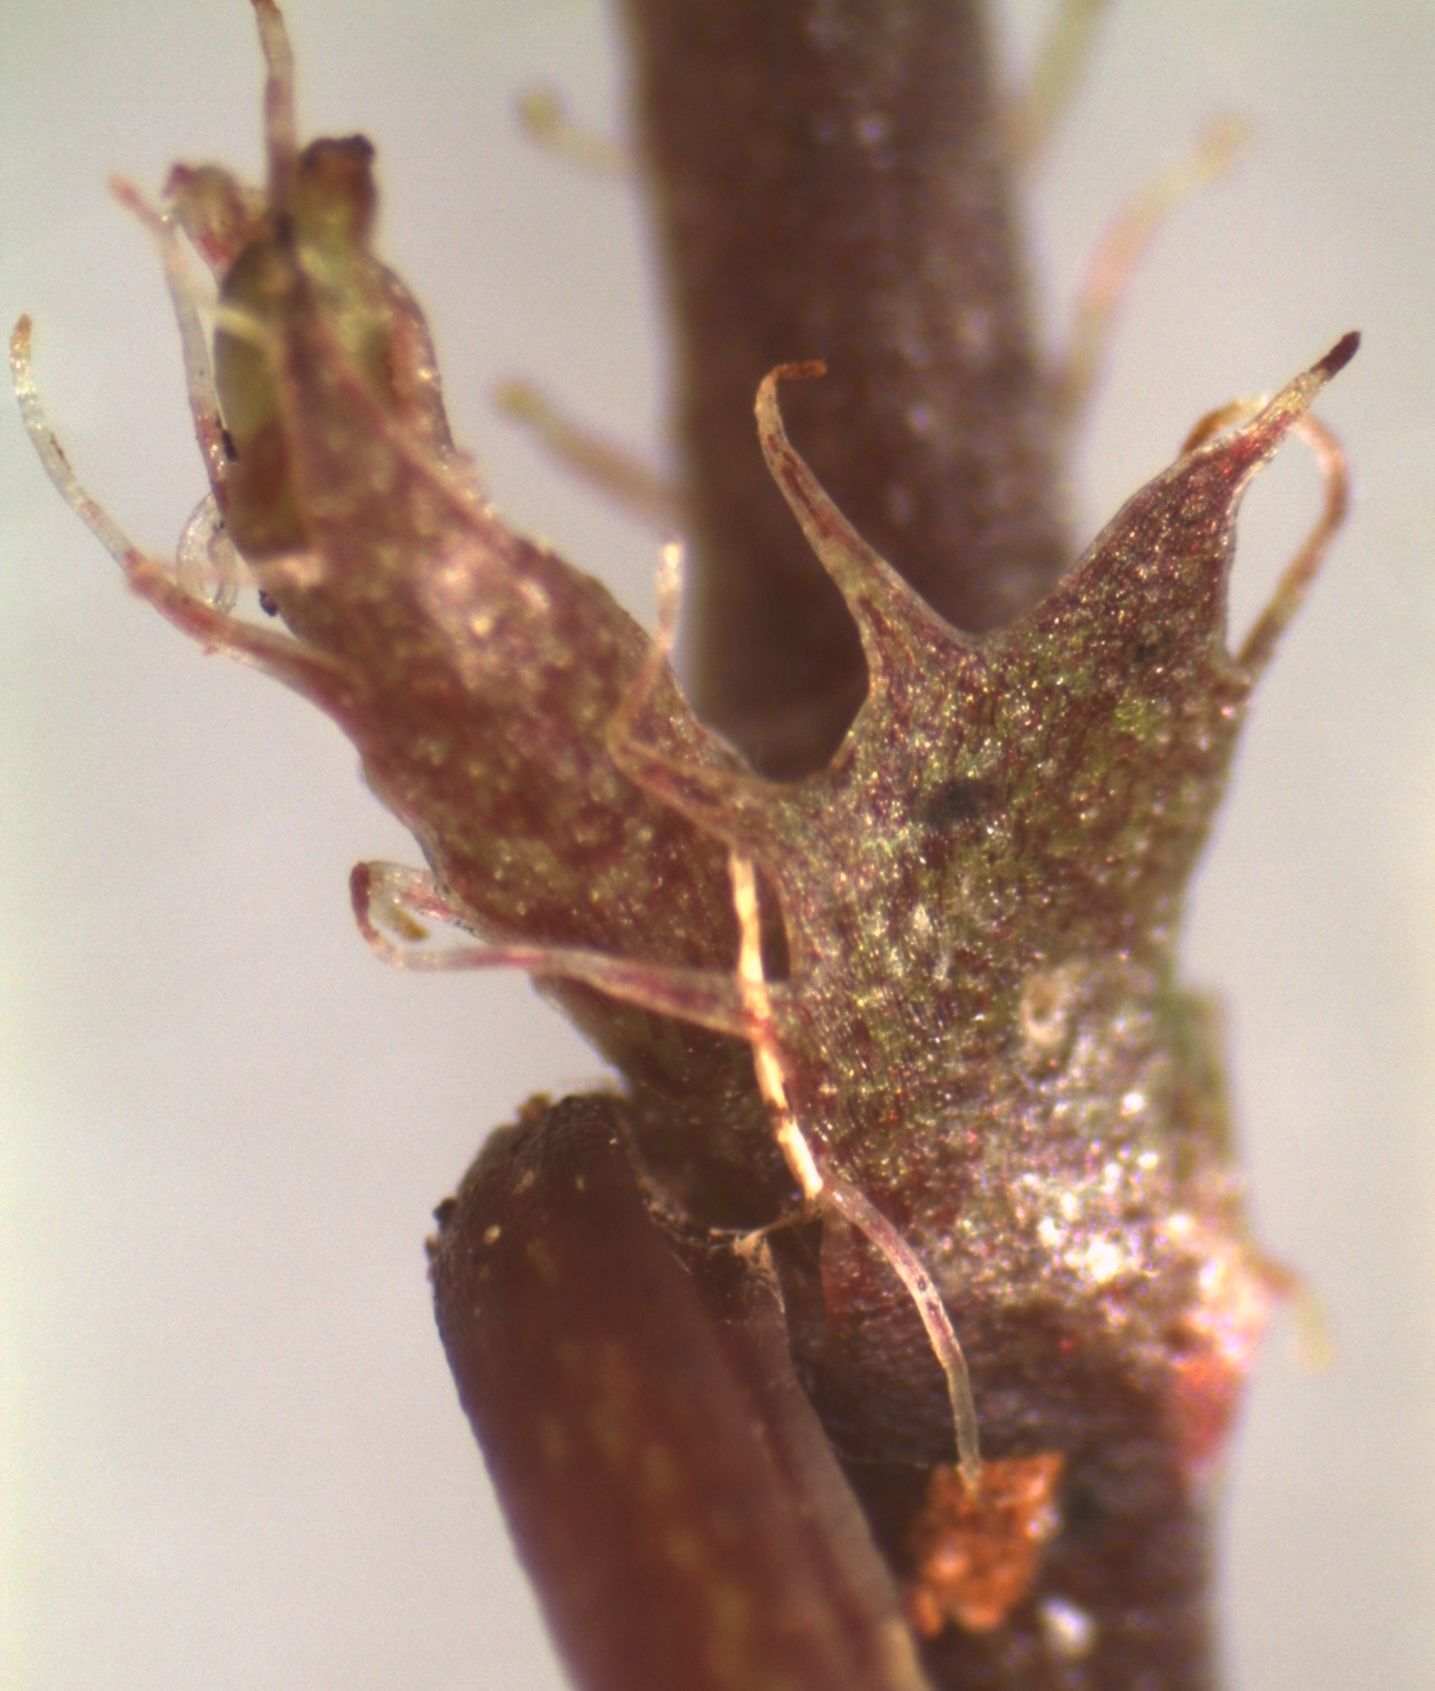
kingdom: Plantae
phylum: Tracheophyta
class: Magnoliopsida
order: Malpighiales
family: Violaceae
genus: Viola
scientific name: Viola filicaulis
